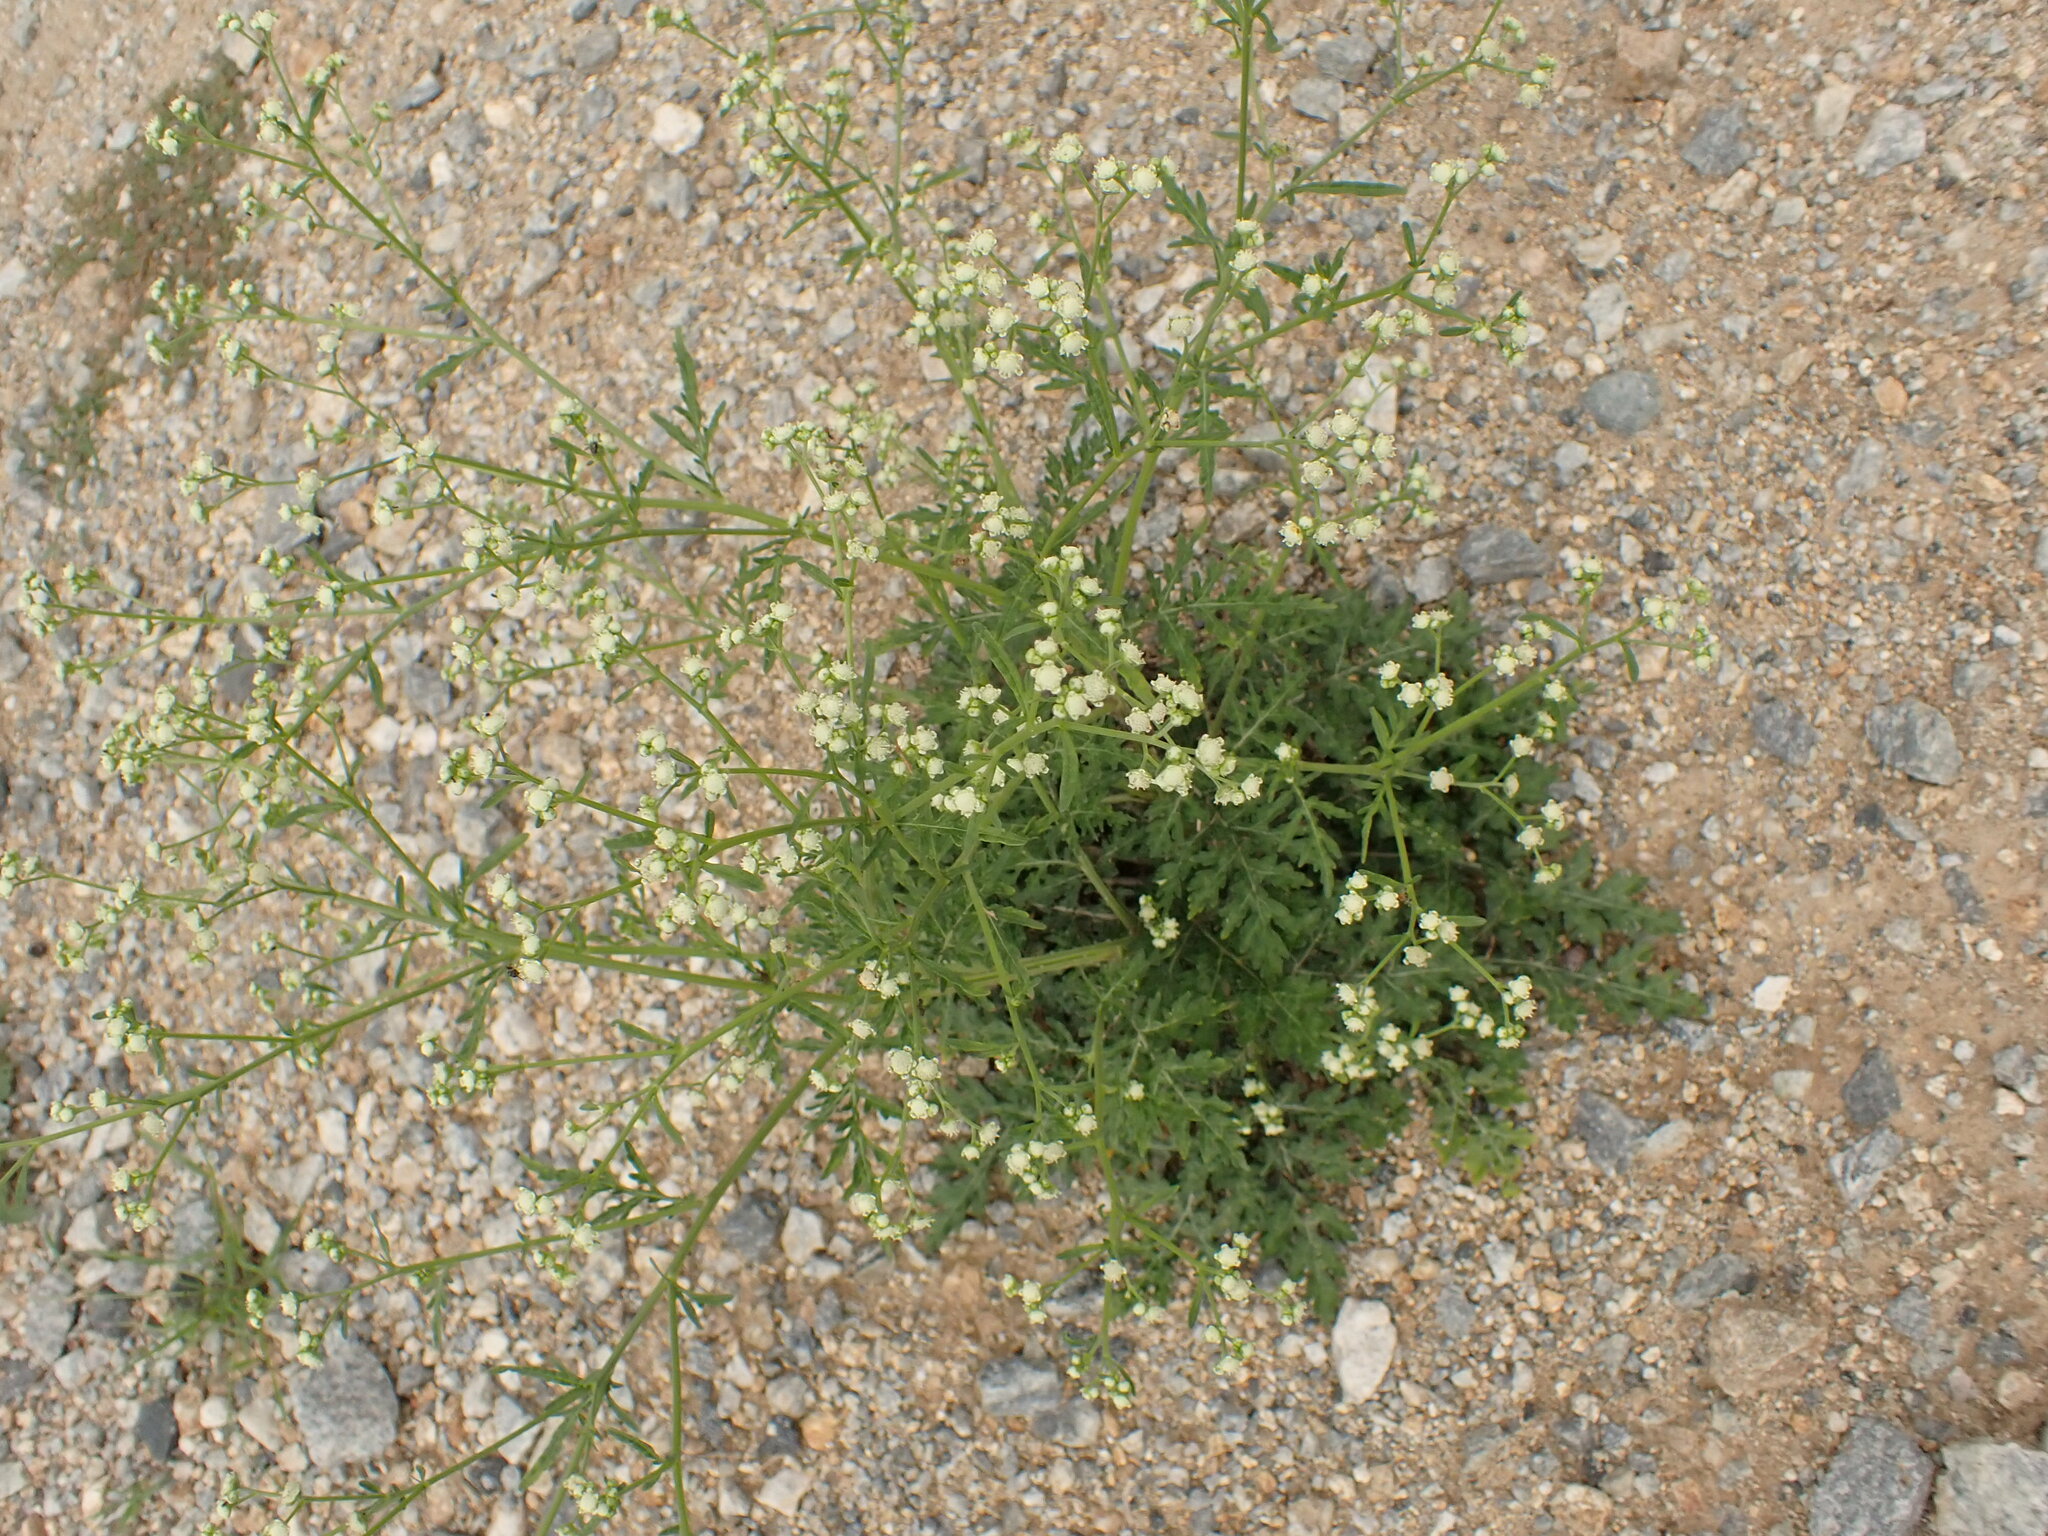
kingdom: Plantae
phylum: Tracheophyta
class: Magnoliopsida
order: Asterales
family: Asteraceae
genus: Parthenium
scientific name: Parthenium hysterophorus
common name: Santa maria feverfew
